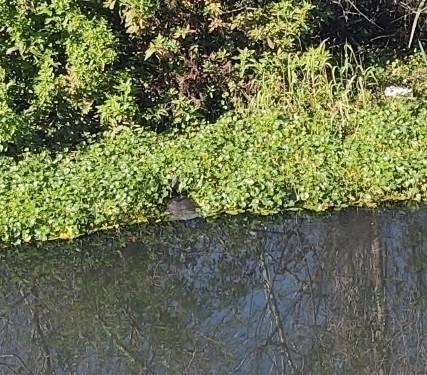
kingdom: Animalia
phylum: Chordata
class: Testudines
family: Trionychidae
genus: Apalone
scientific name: Apalone ferox
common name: Florida softshell turtle
